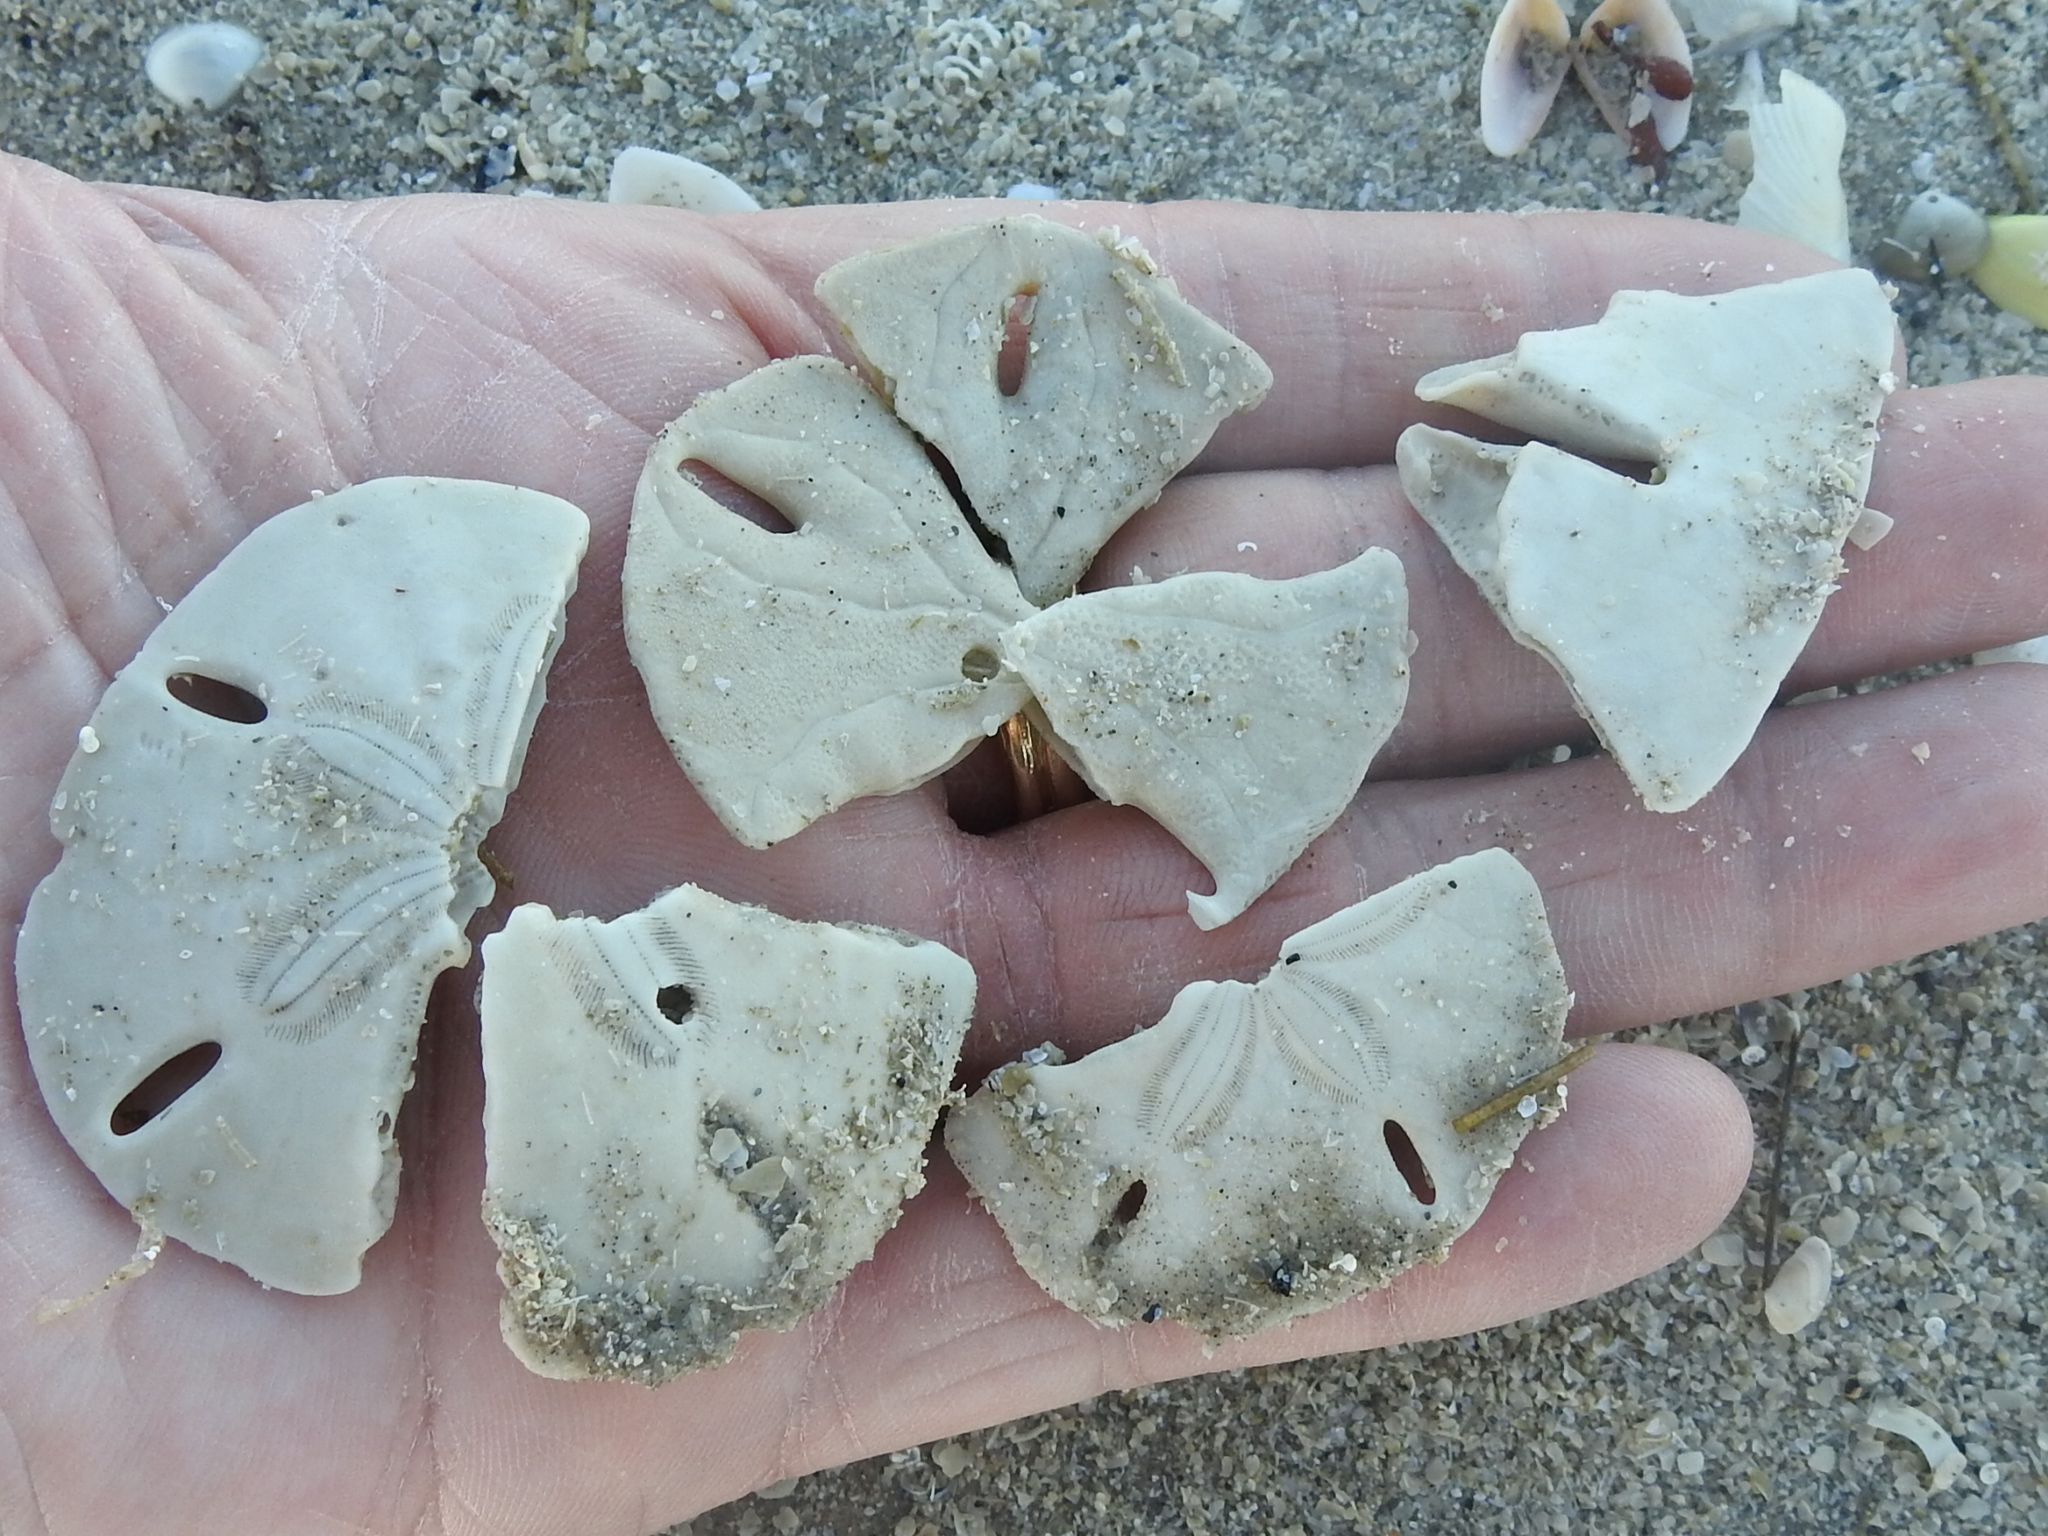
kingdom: Animalia
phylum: Echinodermata
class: Echinoidea
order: Echinolampadacea
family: Mellitidae
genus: Mellita
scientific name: Mellita quinquiesperforata
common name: Sand dollar
